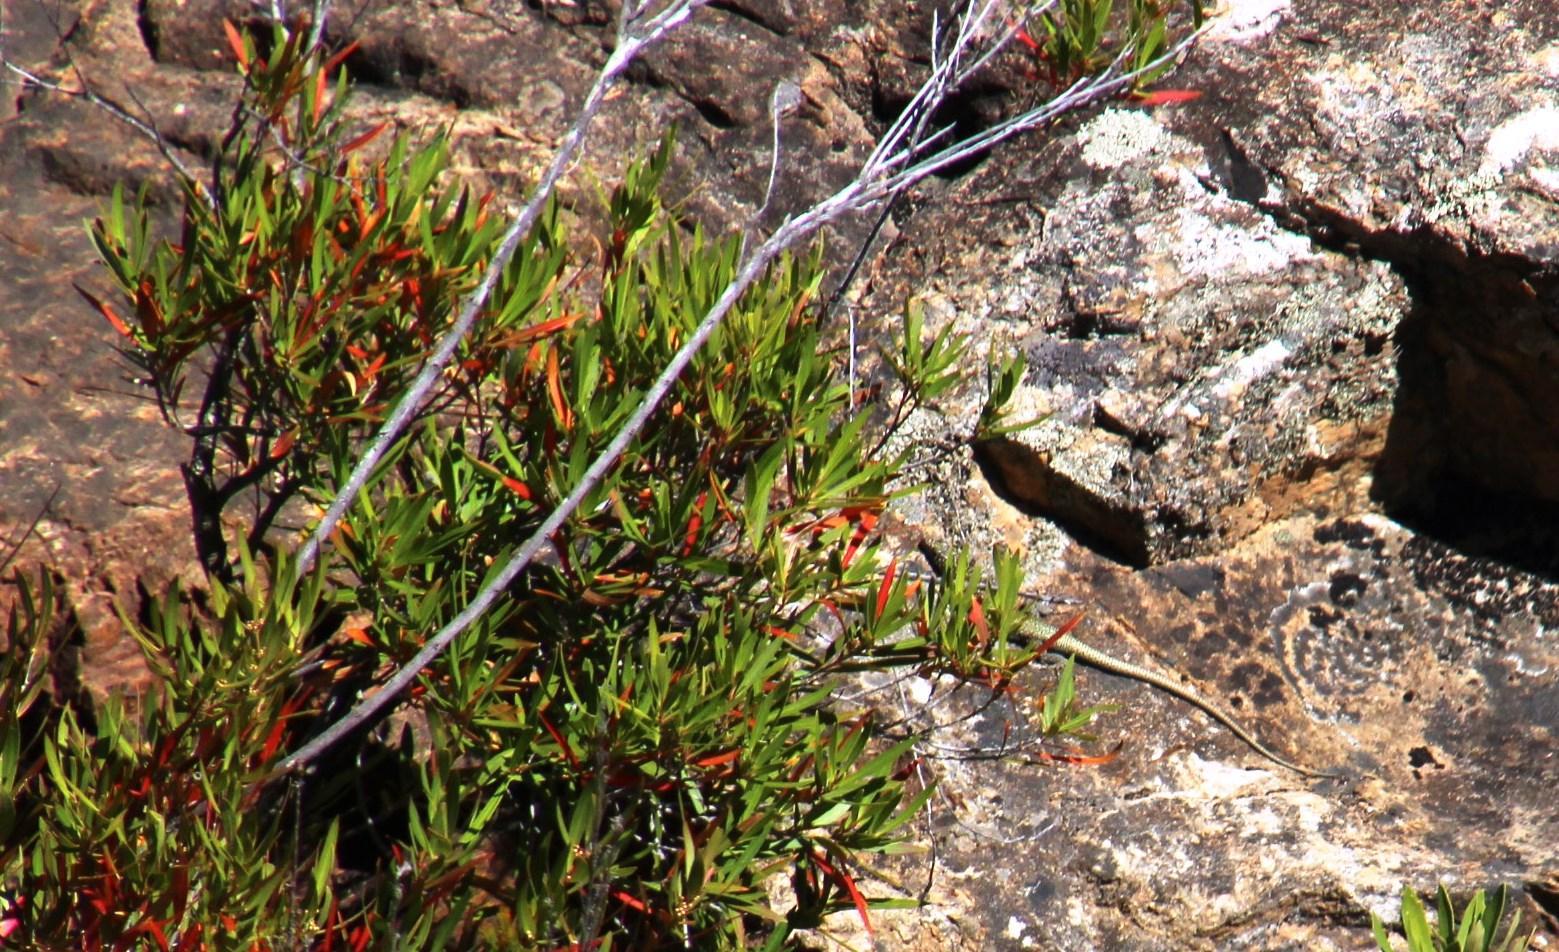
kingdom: Plantae
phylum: Tracheophyta
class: Magnoliopsida
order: Myrtales
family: Myrtaceae
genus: Callistemon
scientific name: Callistemon lanceolatus
